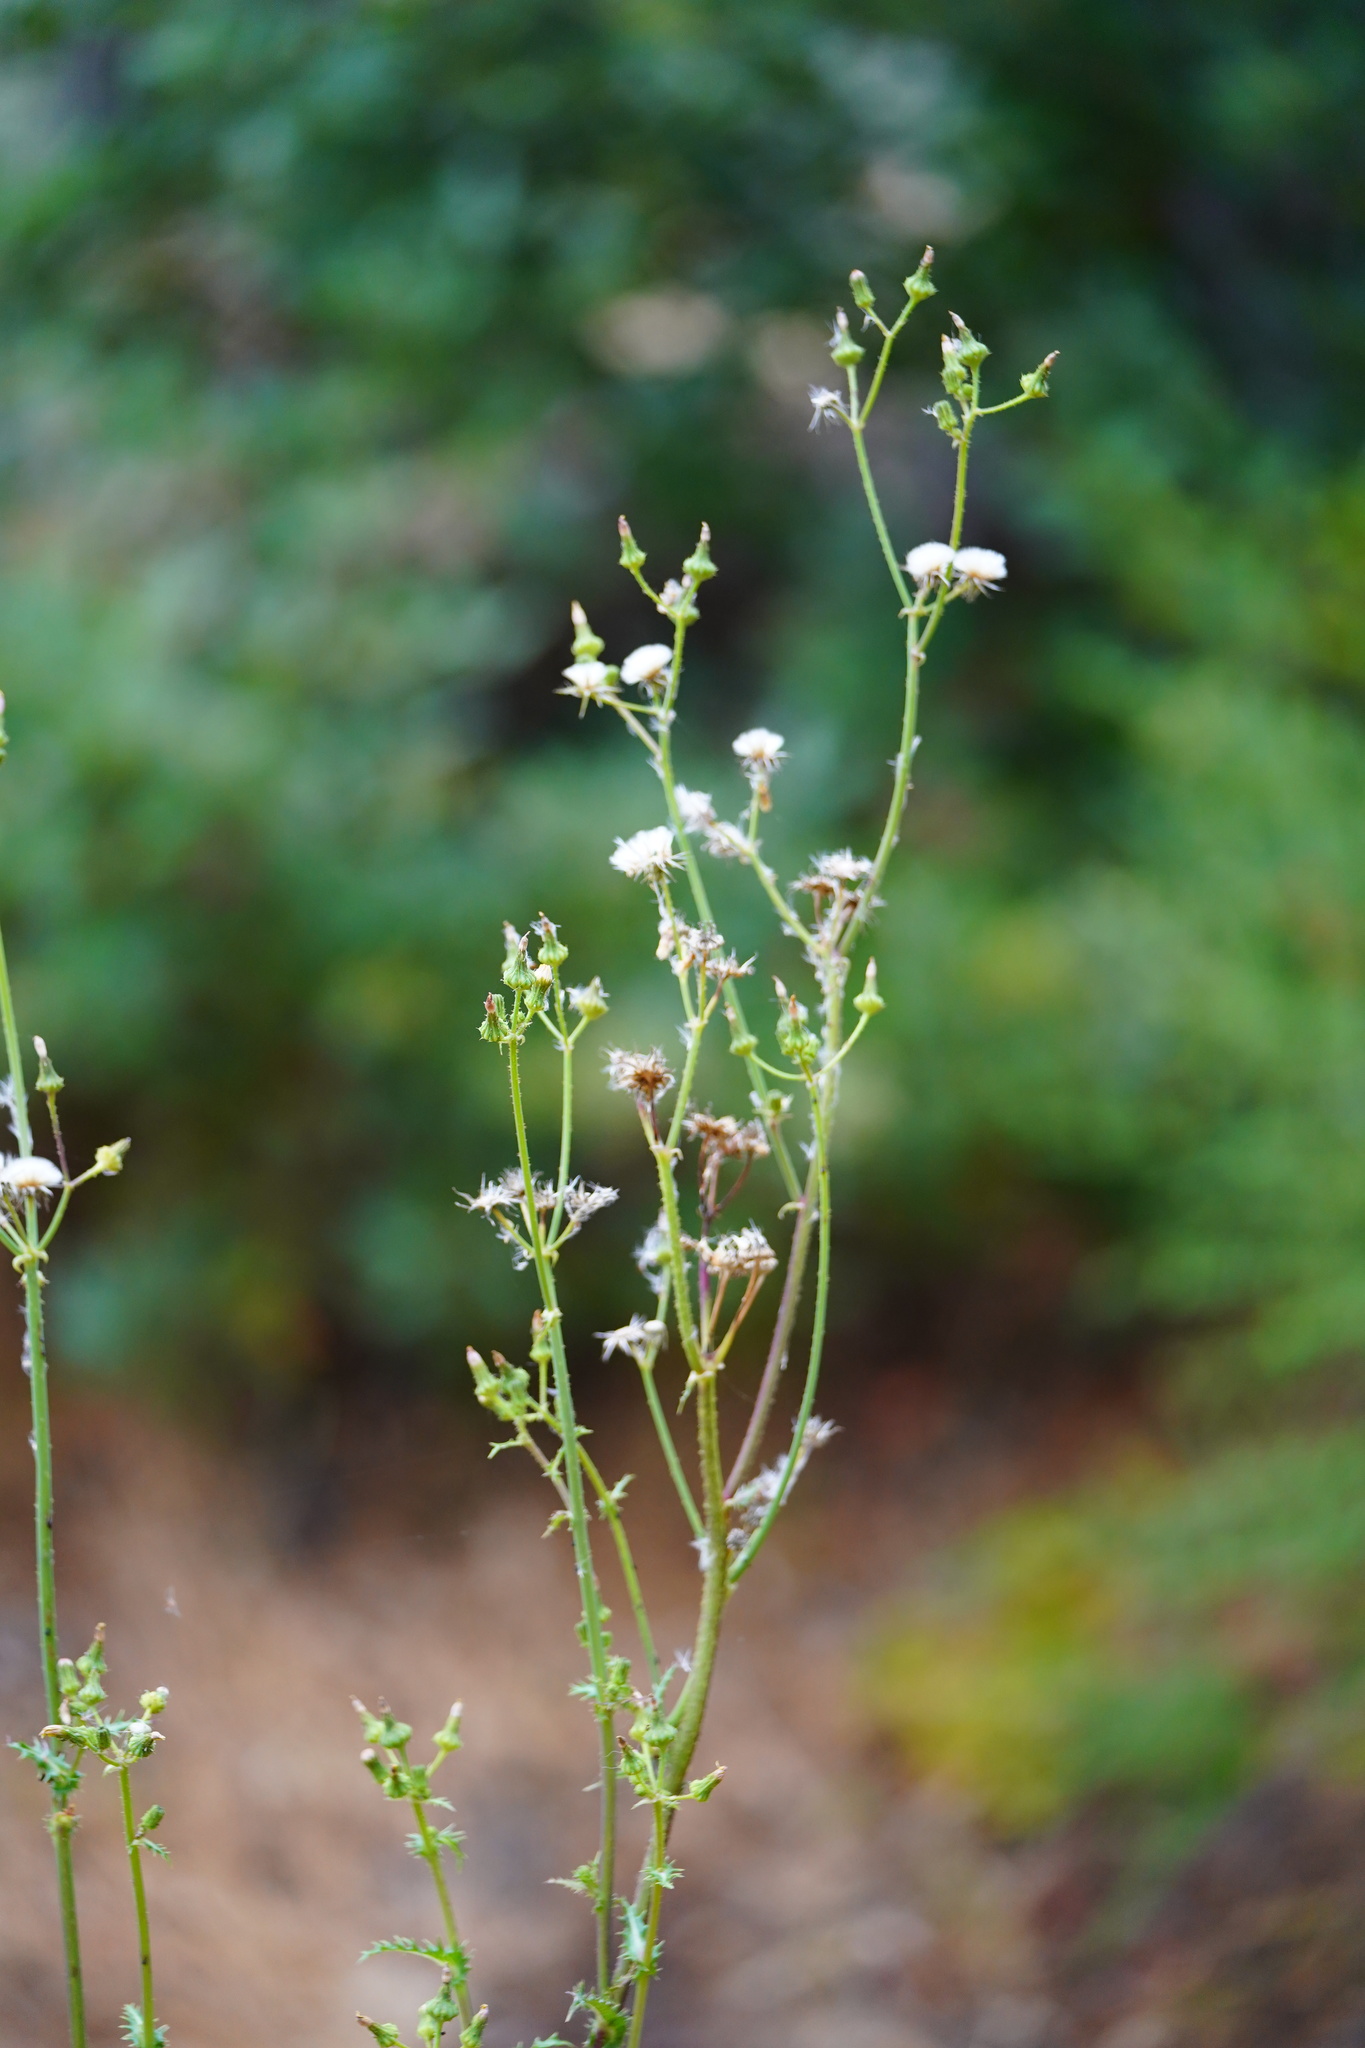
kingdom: Plantae
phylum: Tracheophyta
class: Magnoliopsida
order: Asterales
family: Asteraceae
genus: Sonchus
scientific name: Sonchus asper
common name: Prickly sow-thistle
